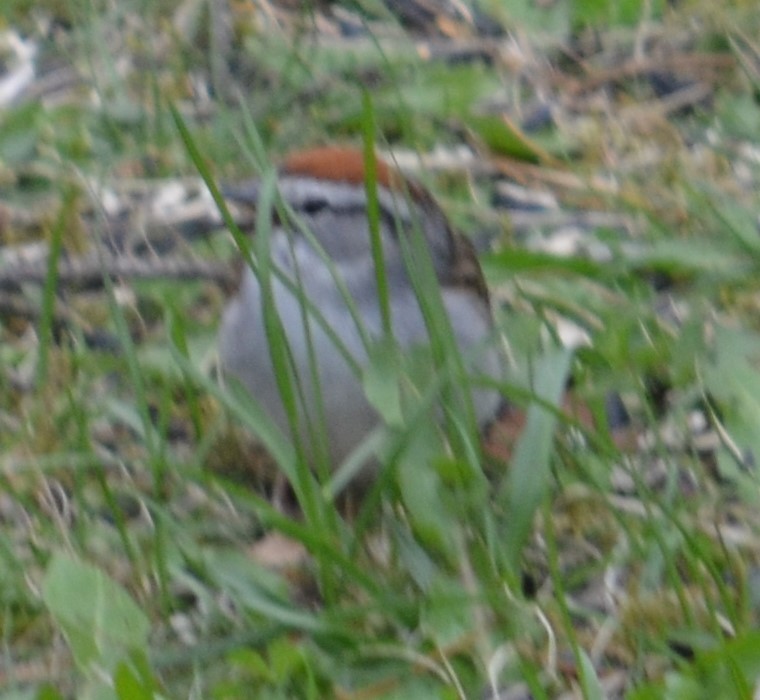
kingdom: Animalia
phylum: Chordata
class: Aves
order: Passeriformes
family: Passerellidae
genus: Spizella
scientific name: Spizella passerina
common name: Chipping sparrow
